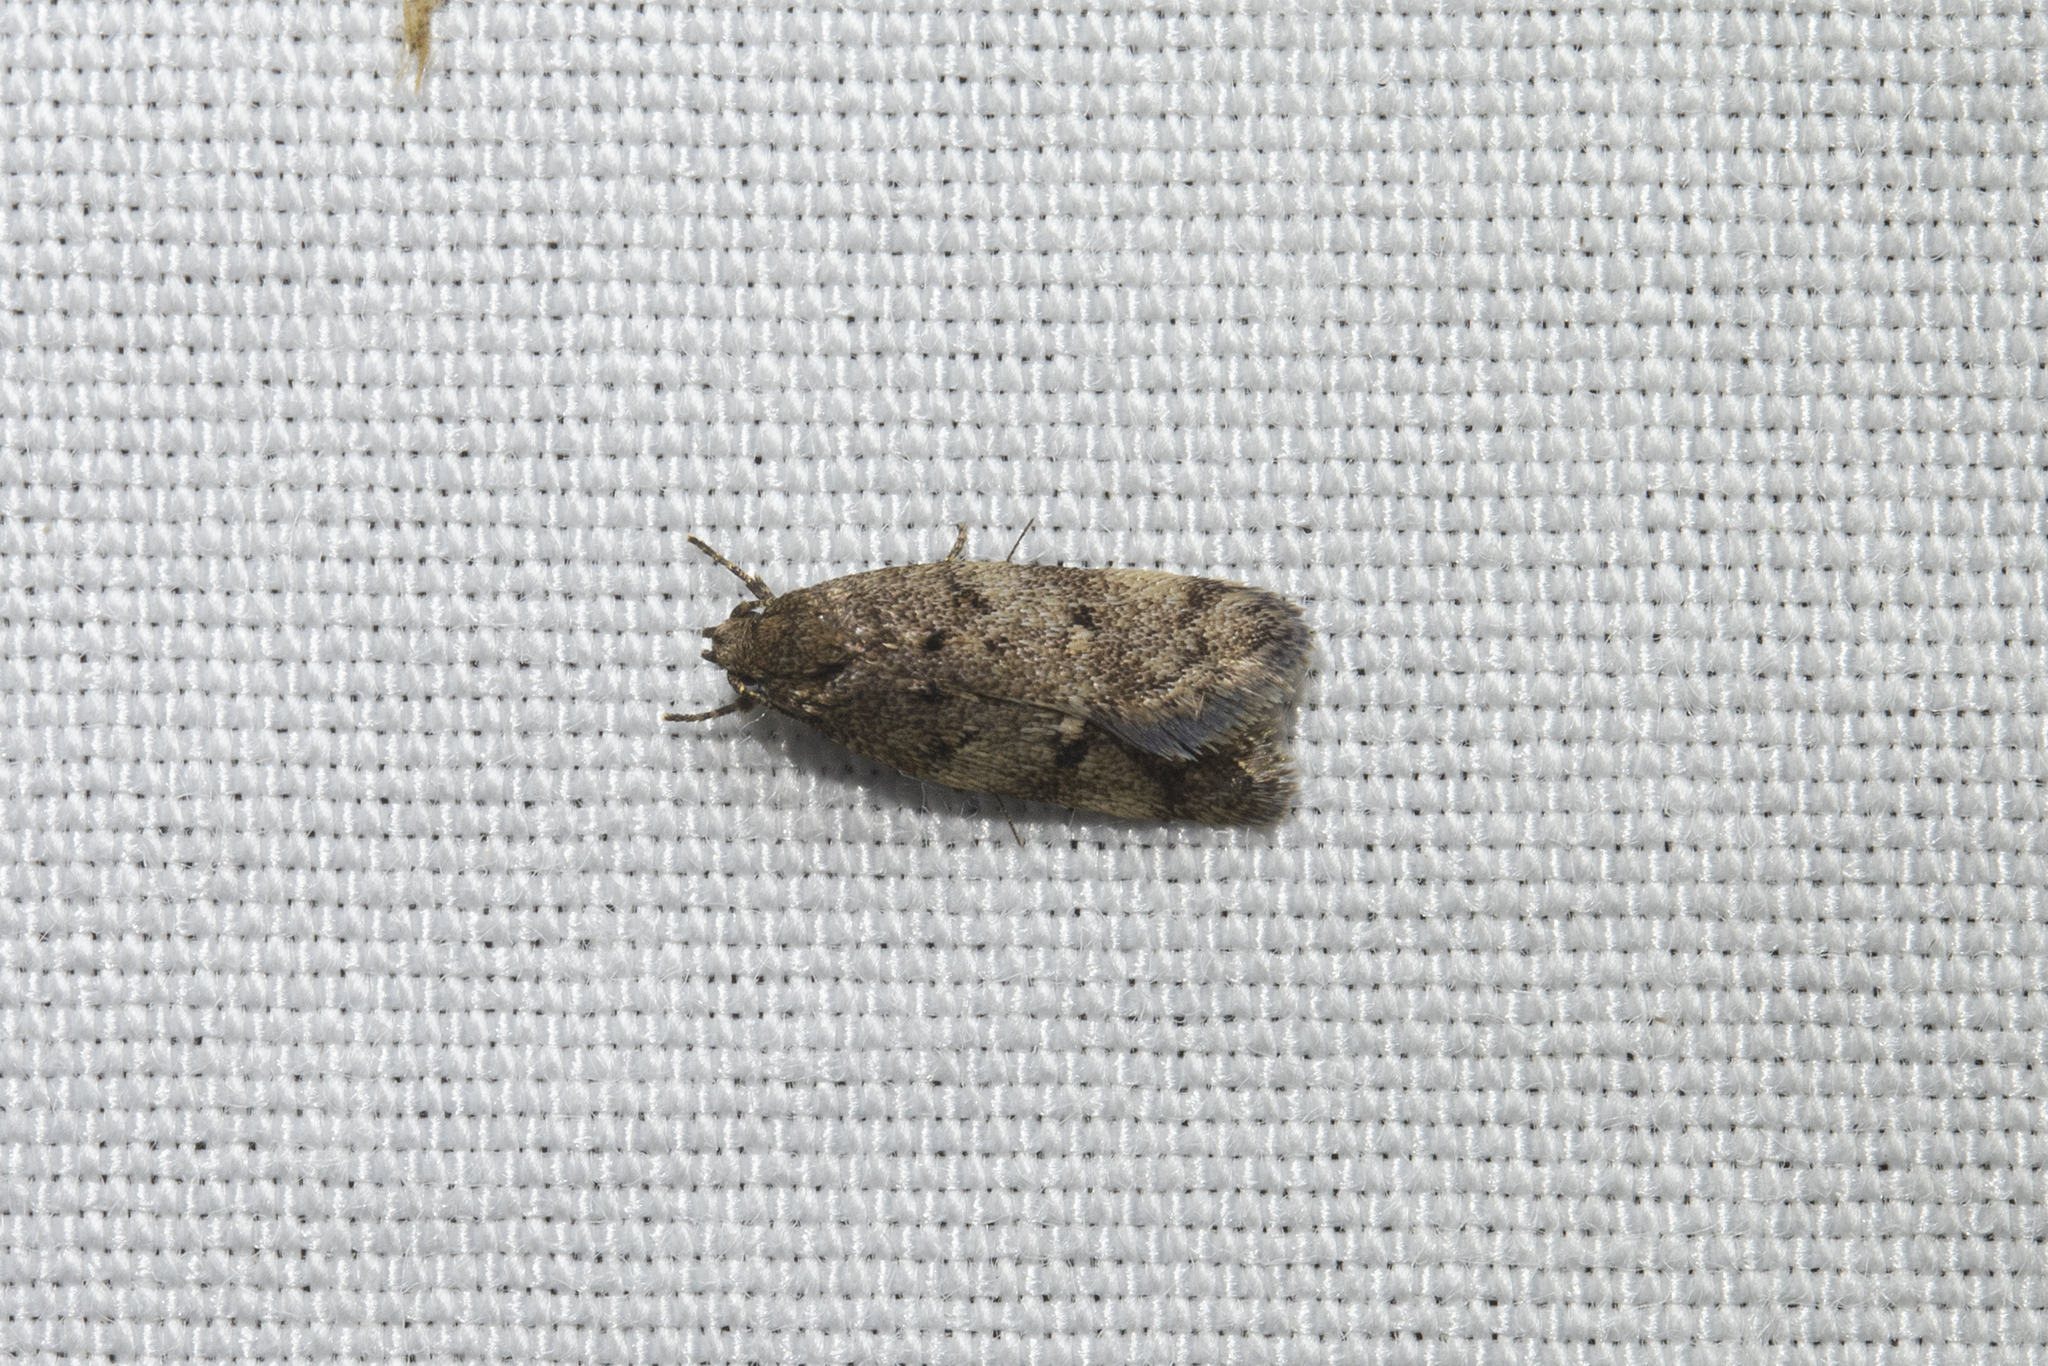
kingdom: Animalia
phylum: Arthropoda
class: Insecta
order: Lepidoptera
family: Oecophoridae
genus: Tingena
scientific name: Tingena fenestrata
